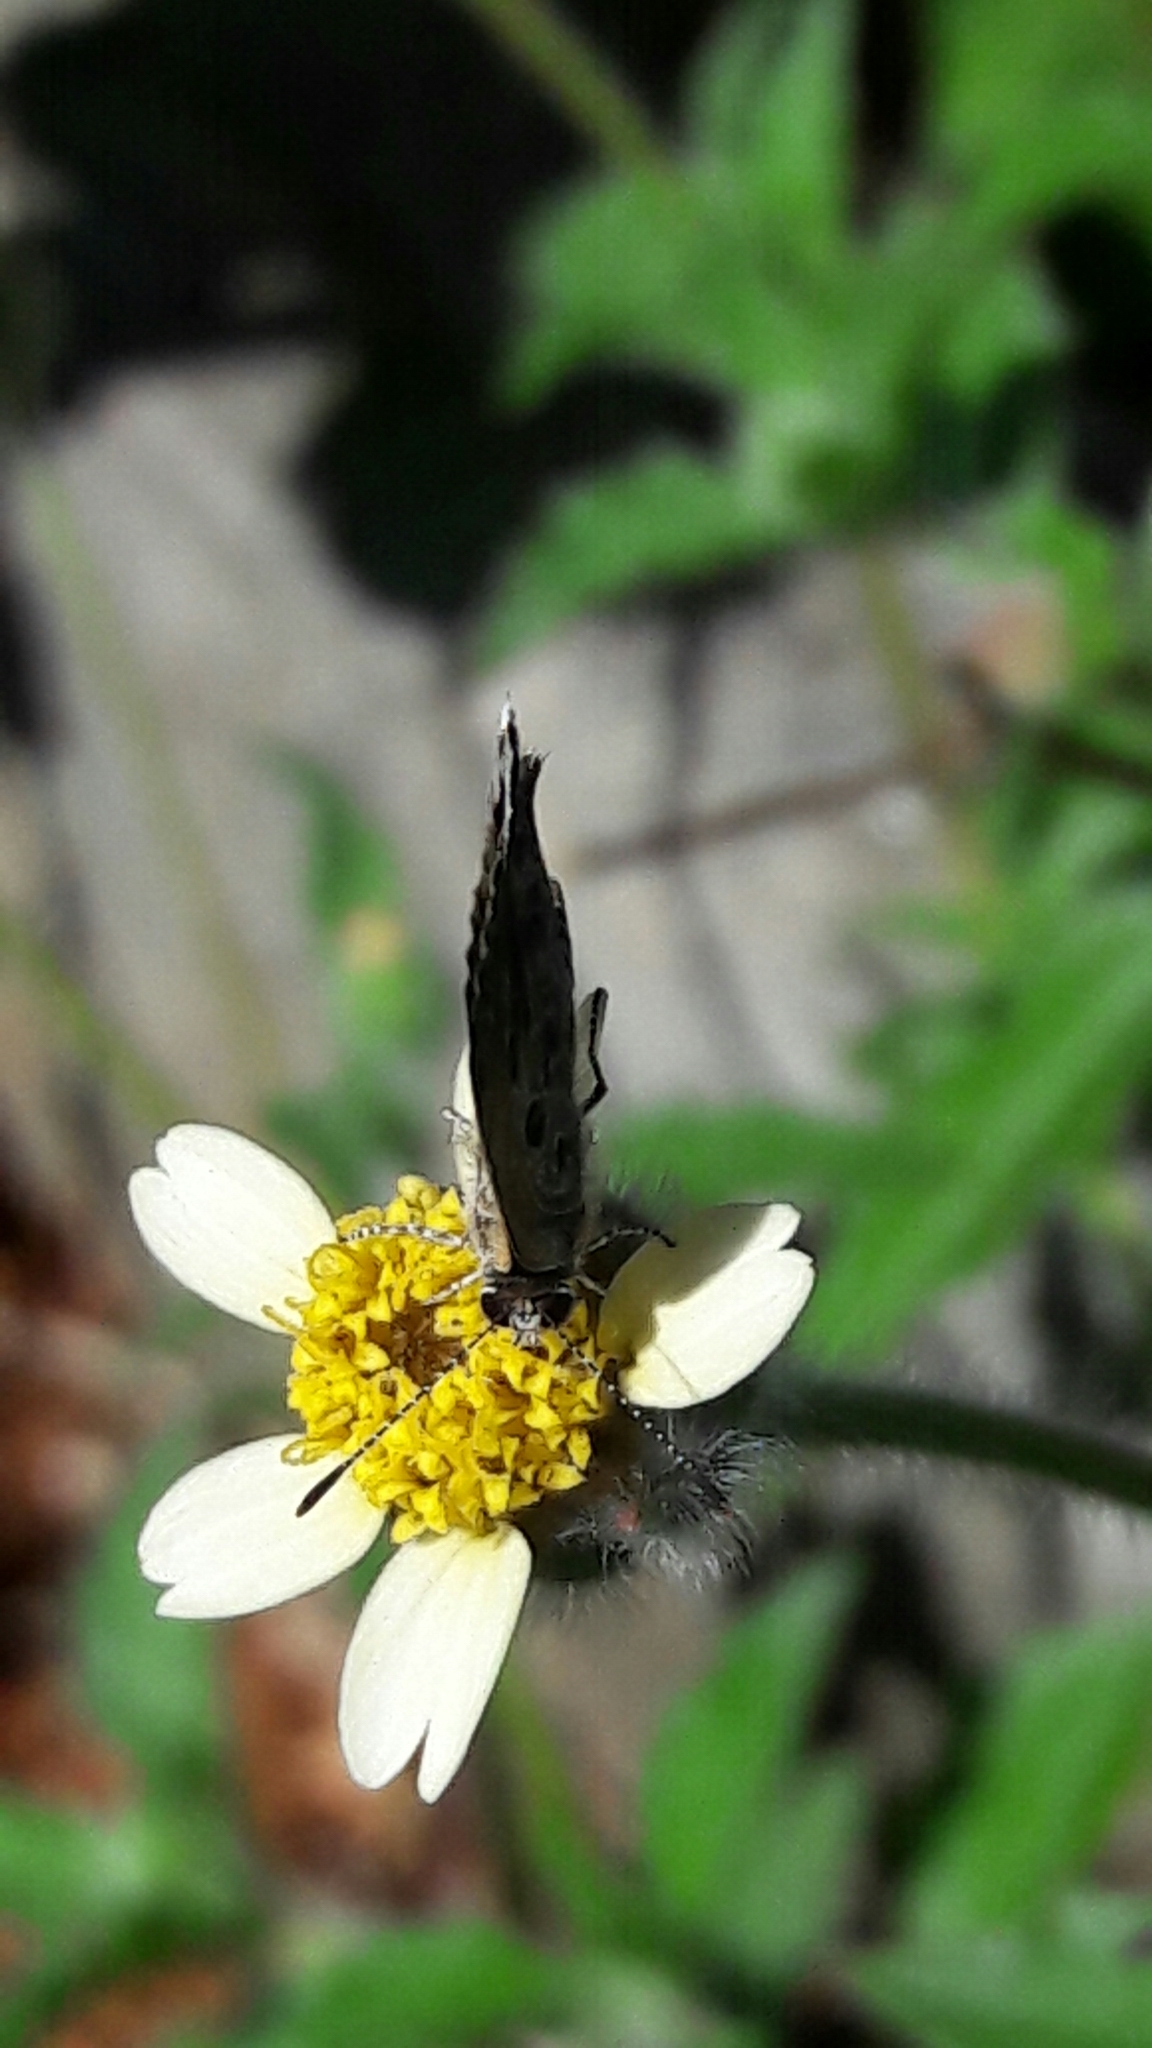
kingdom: Animalia
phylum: Arthropoda
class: Insecta
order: Lepidoptera
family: Nymphalidae
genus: Tegosa
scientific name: Tegosa claudina
